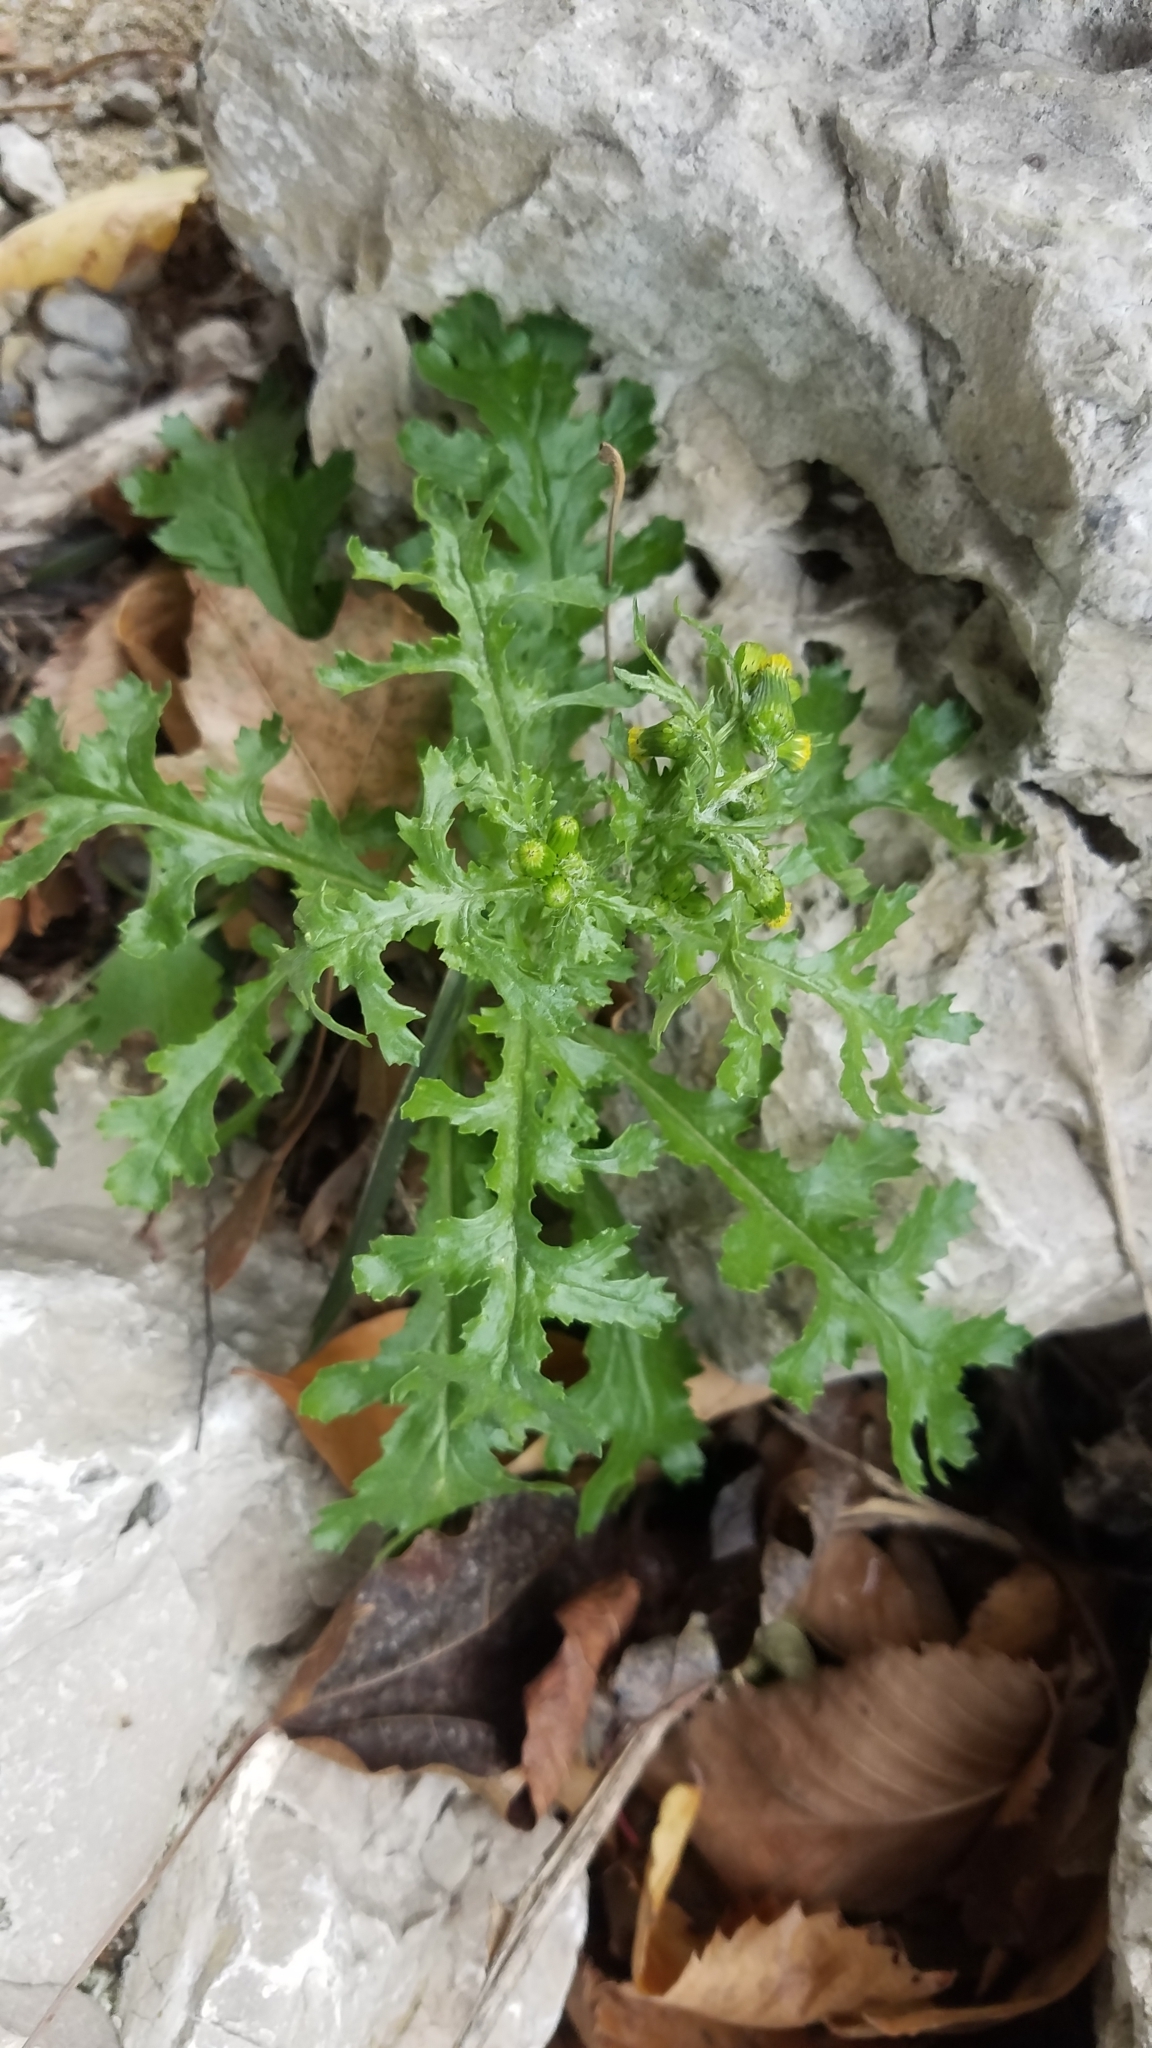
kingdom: Plantae
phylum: Tracheophyta
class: Magnoliopsida
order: Asterales
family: Asteraceae
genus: Senecio
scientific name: Senecio vulgaris
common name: Old-man-in-the-spring
